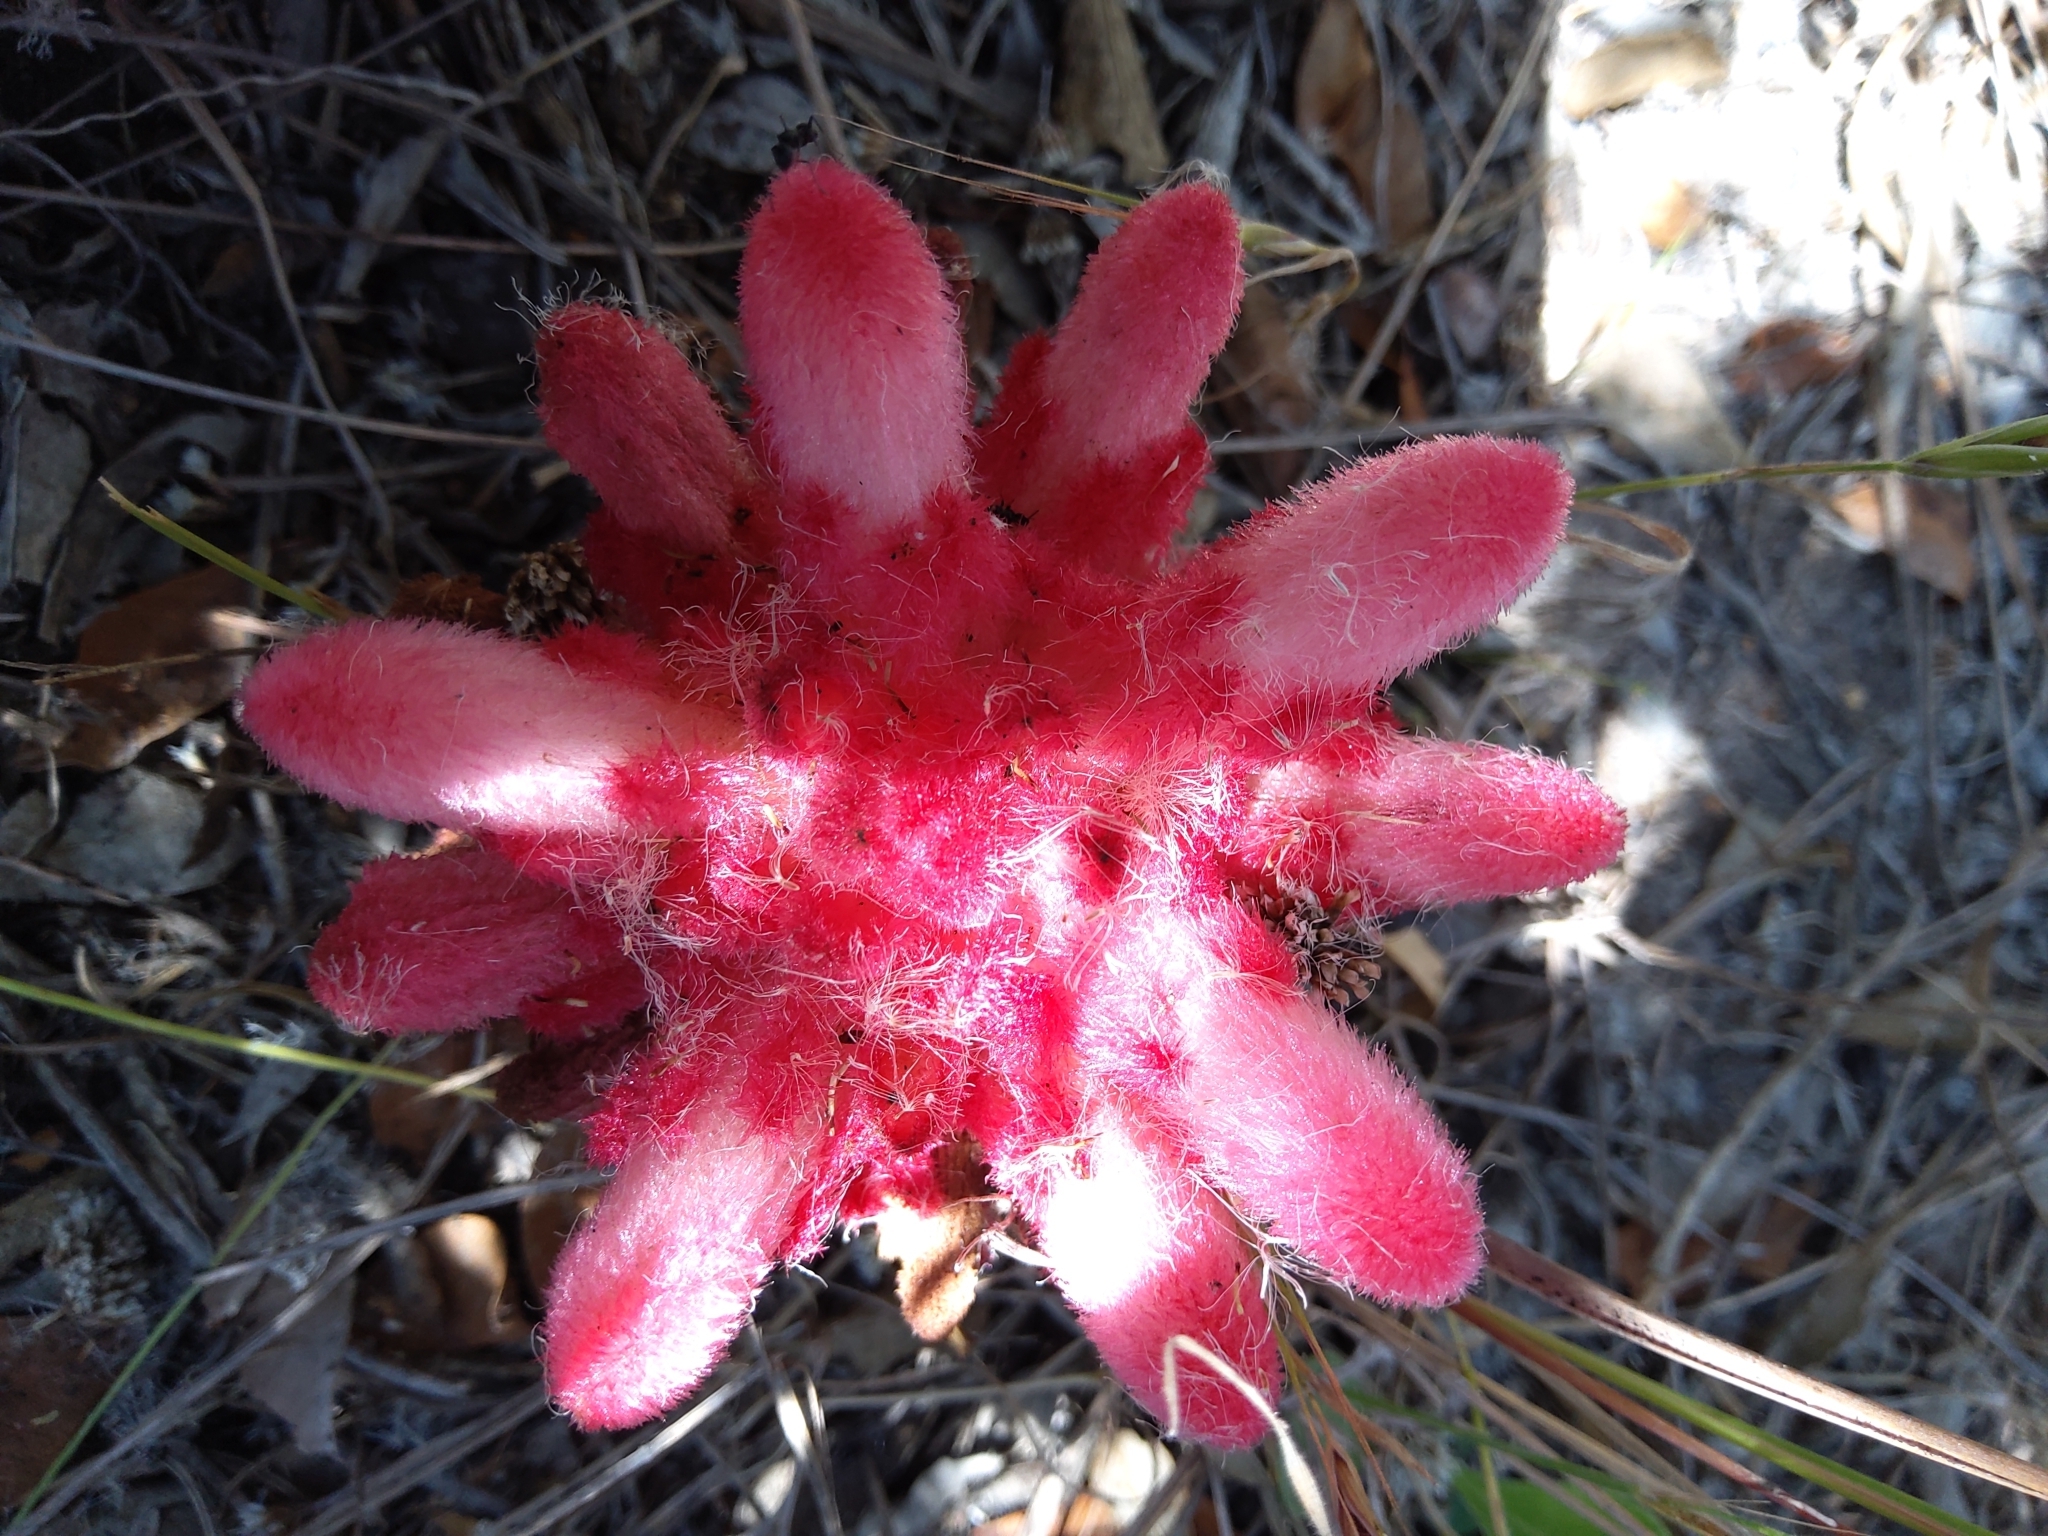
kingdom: Plantae
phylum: Tracheophyta
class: Magnoliopsida
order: Lamiales
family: Orobanchaceae
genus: Hyobanche
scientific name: Hyobanche sanguinea
